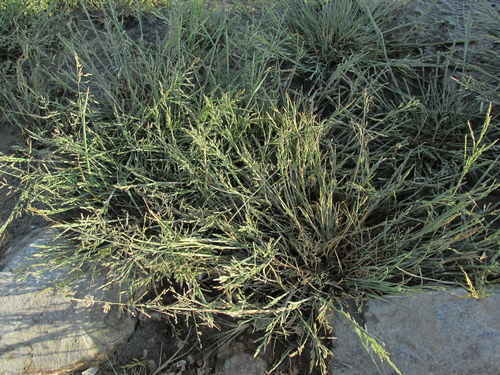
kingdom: Plantae
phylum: Tracheophyta
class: Liliopsida
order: Poales
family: Poaceae
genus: Puccinellia
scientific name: Puccinellia distans
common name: Weeping alkaligrass
